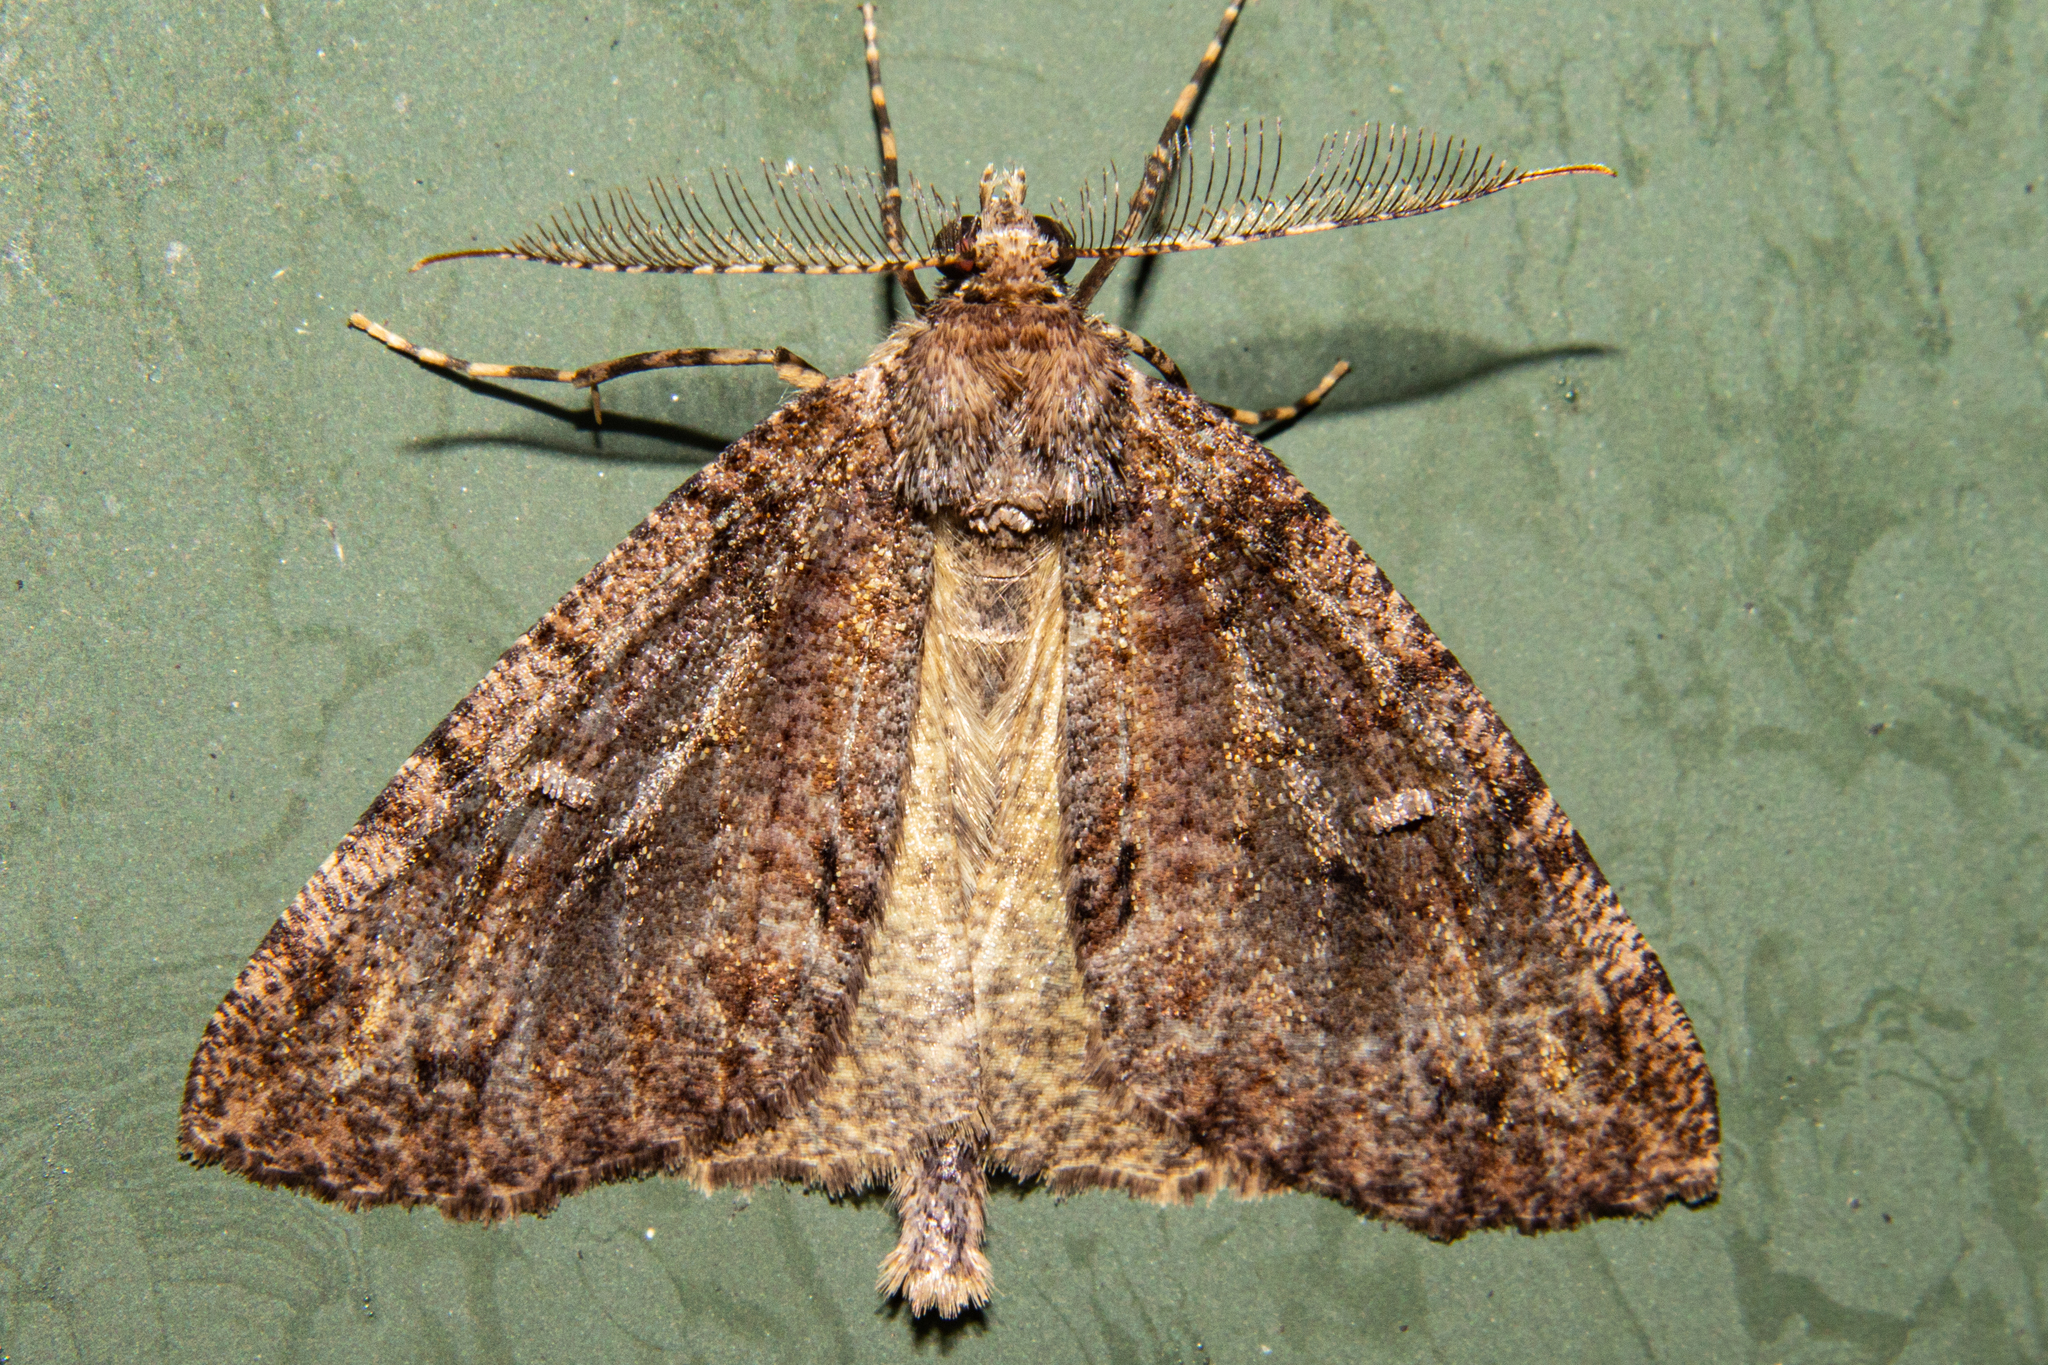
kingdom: Animalia
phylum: Arthropoda
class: Insecta
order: Lepidoptera
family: Geometridae
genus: Pseudocoremia
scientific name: Pseudocoremia suavis
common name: Common forest looper
